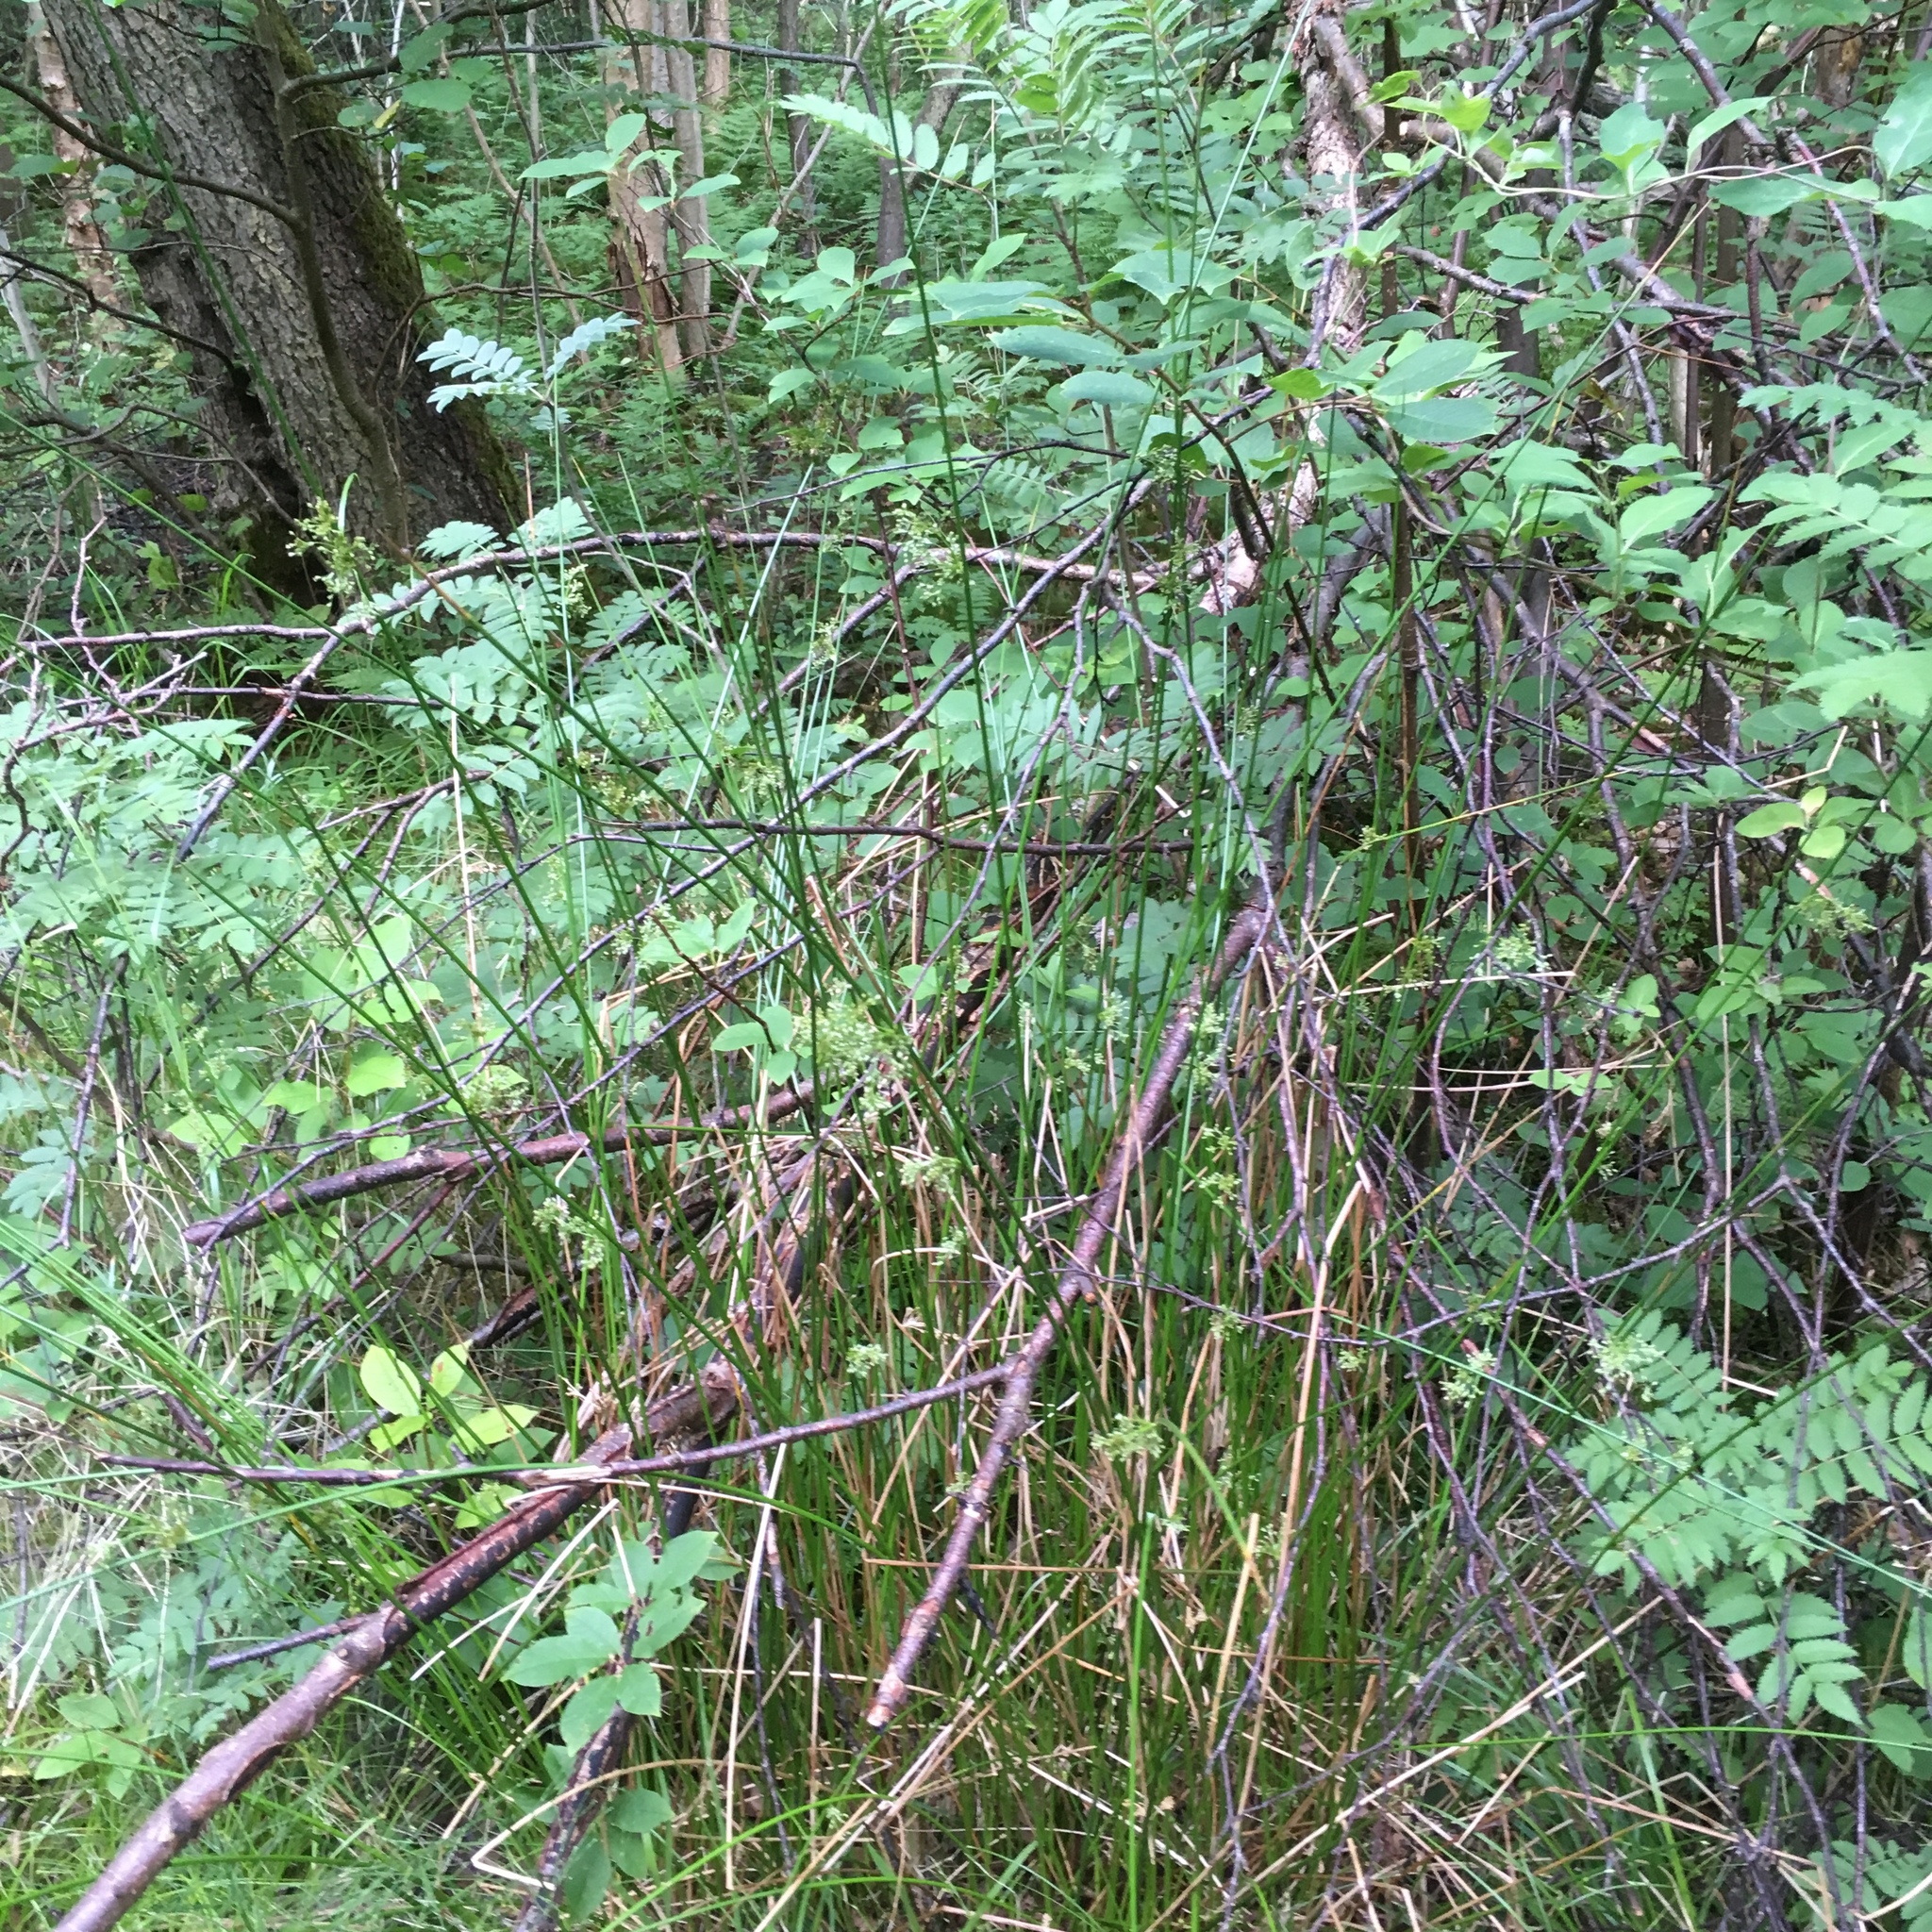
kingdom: Plantae
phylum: Tracheophyta
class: Liliopsida
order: Poales
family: Juncaceae
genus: Juncus
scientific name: Juncus effusus
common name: Soft rush
